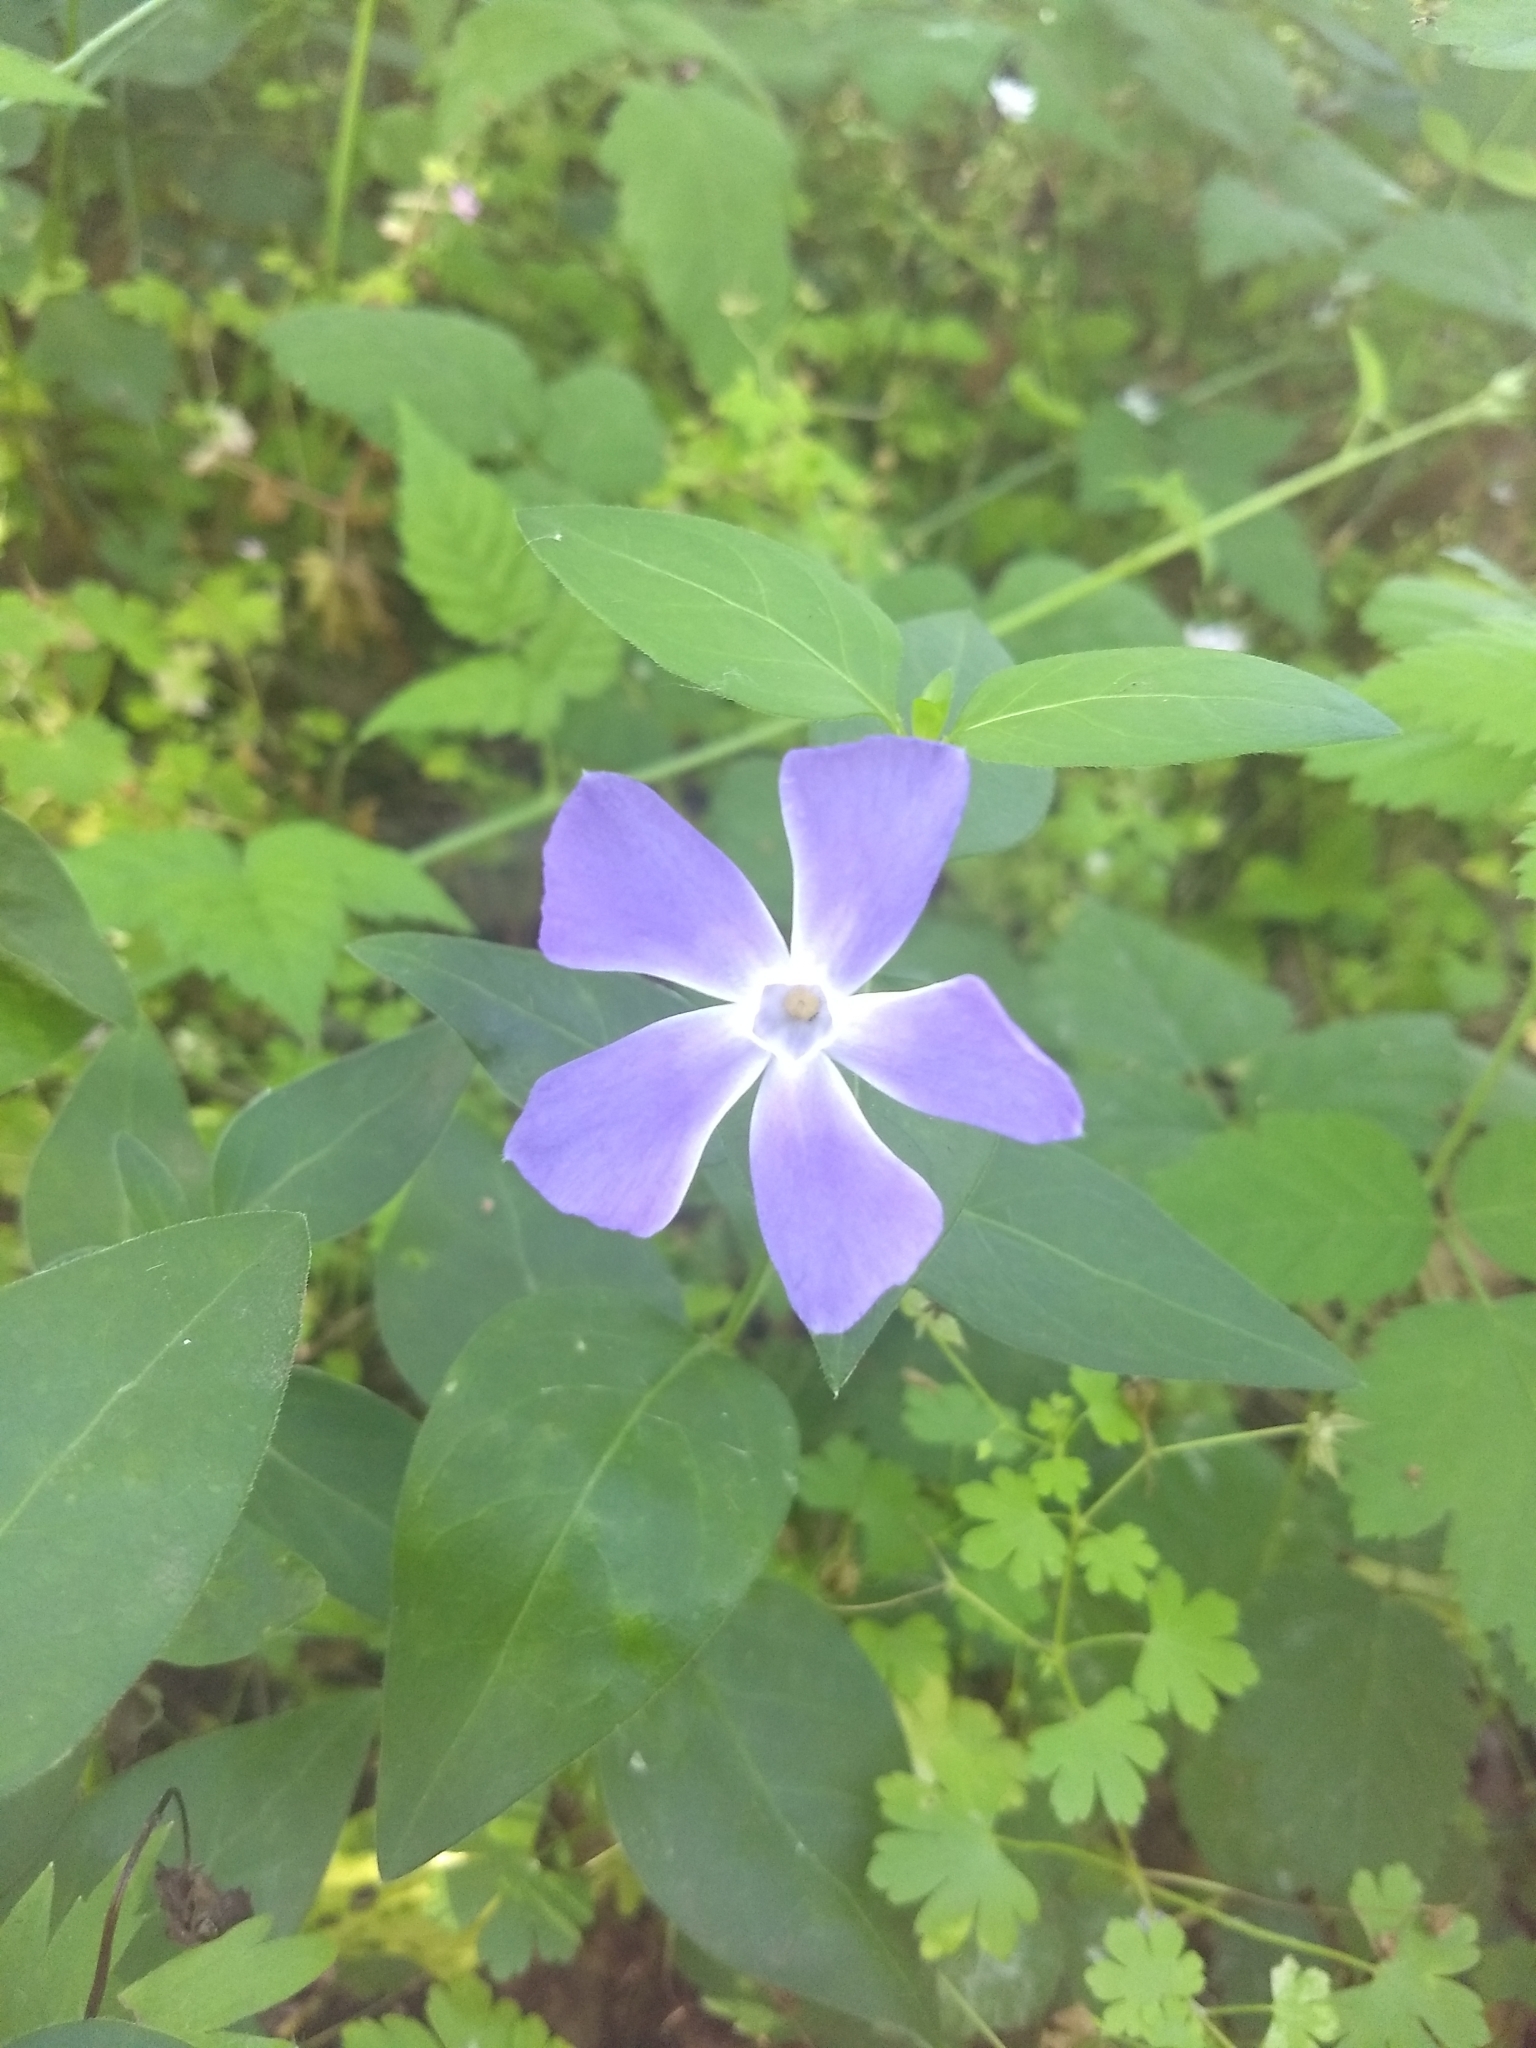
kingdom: Plantae
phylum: Tracheophyta
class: Magnoliopsida
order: Gentianales
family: Apocynaceae
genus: Vinca
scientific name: Vinca major
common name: Greater periwinkle
